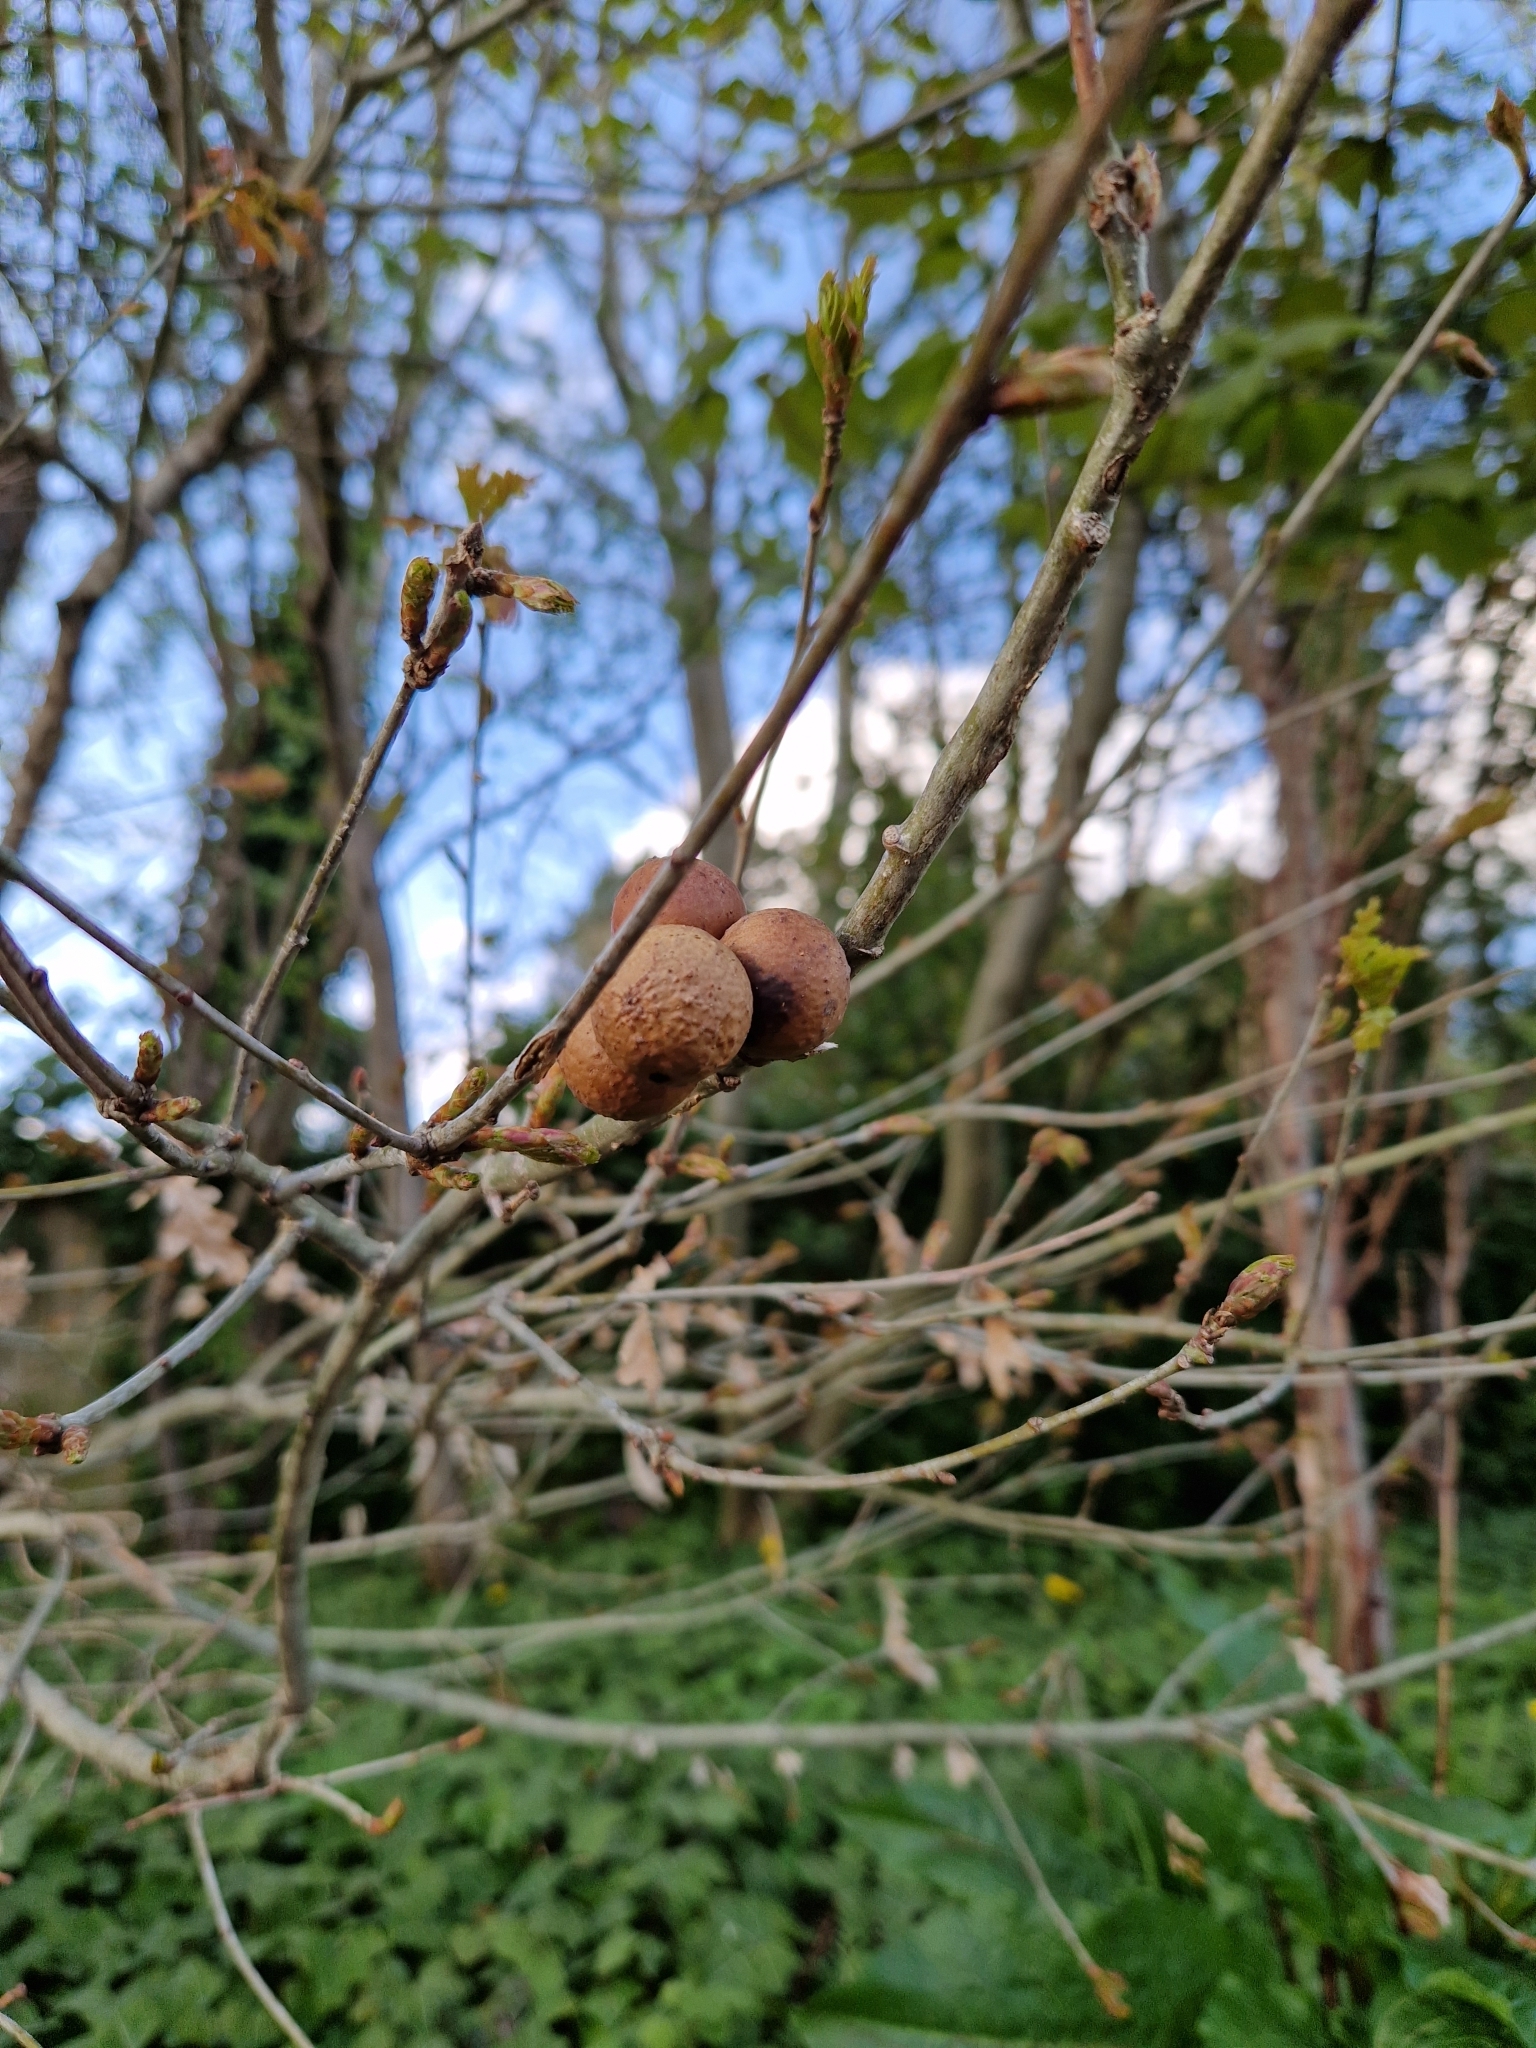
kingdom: Animalia
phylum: Arthropoda
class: Insecta
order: Hymenoptera
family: Cynipidae
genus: Andricus
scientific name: Andricus kollari
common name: Marble gall
